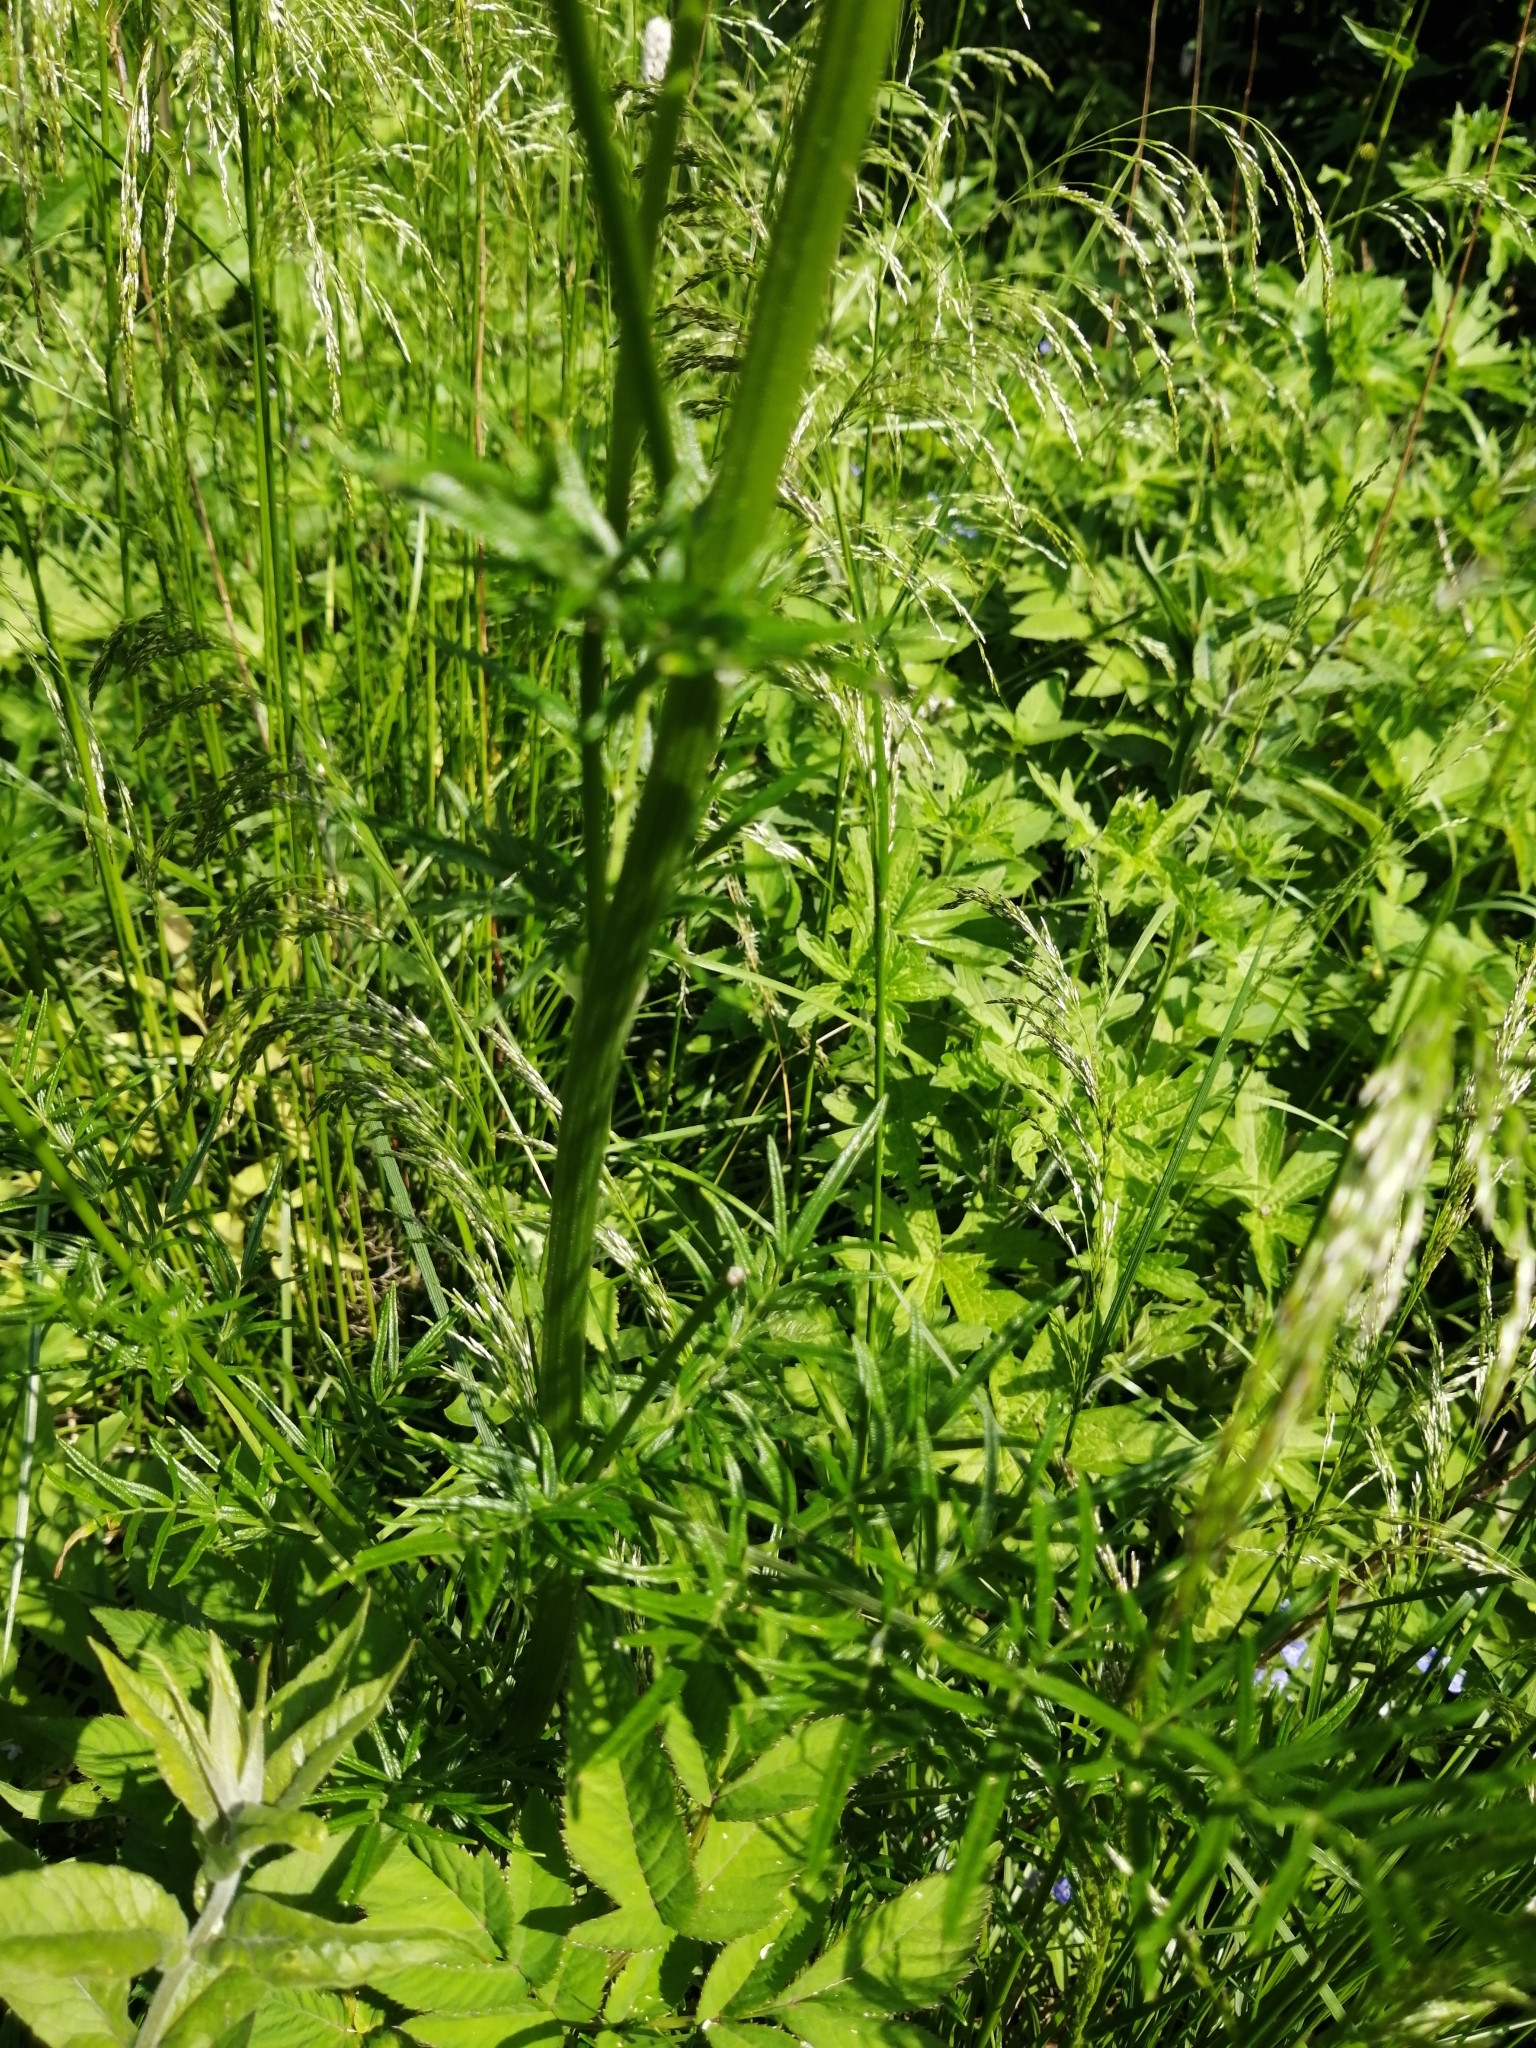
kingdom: Plantae
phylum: Tracheophyta
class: Magnoliopsida
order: Geraniales
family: Geraniaceae
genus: Geranium
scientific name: Geranium palustre
